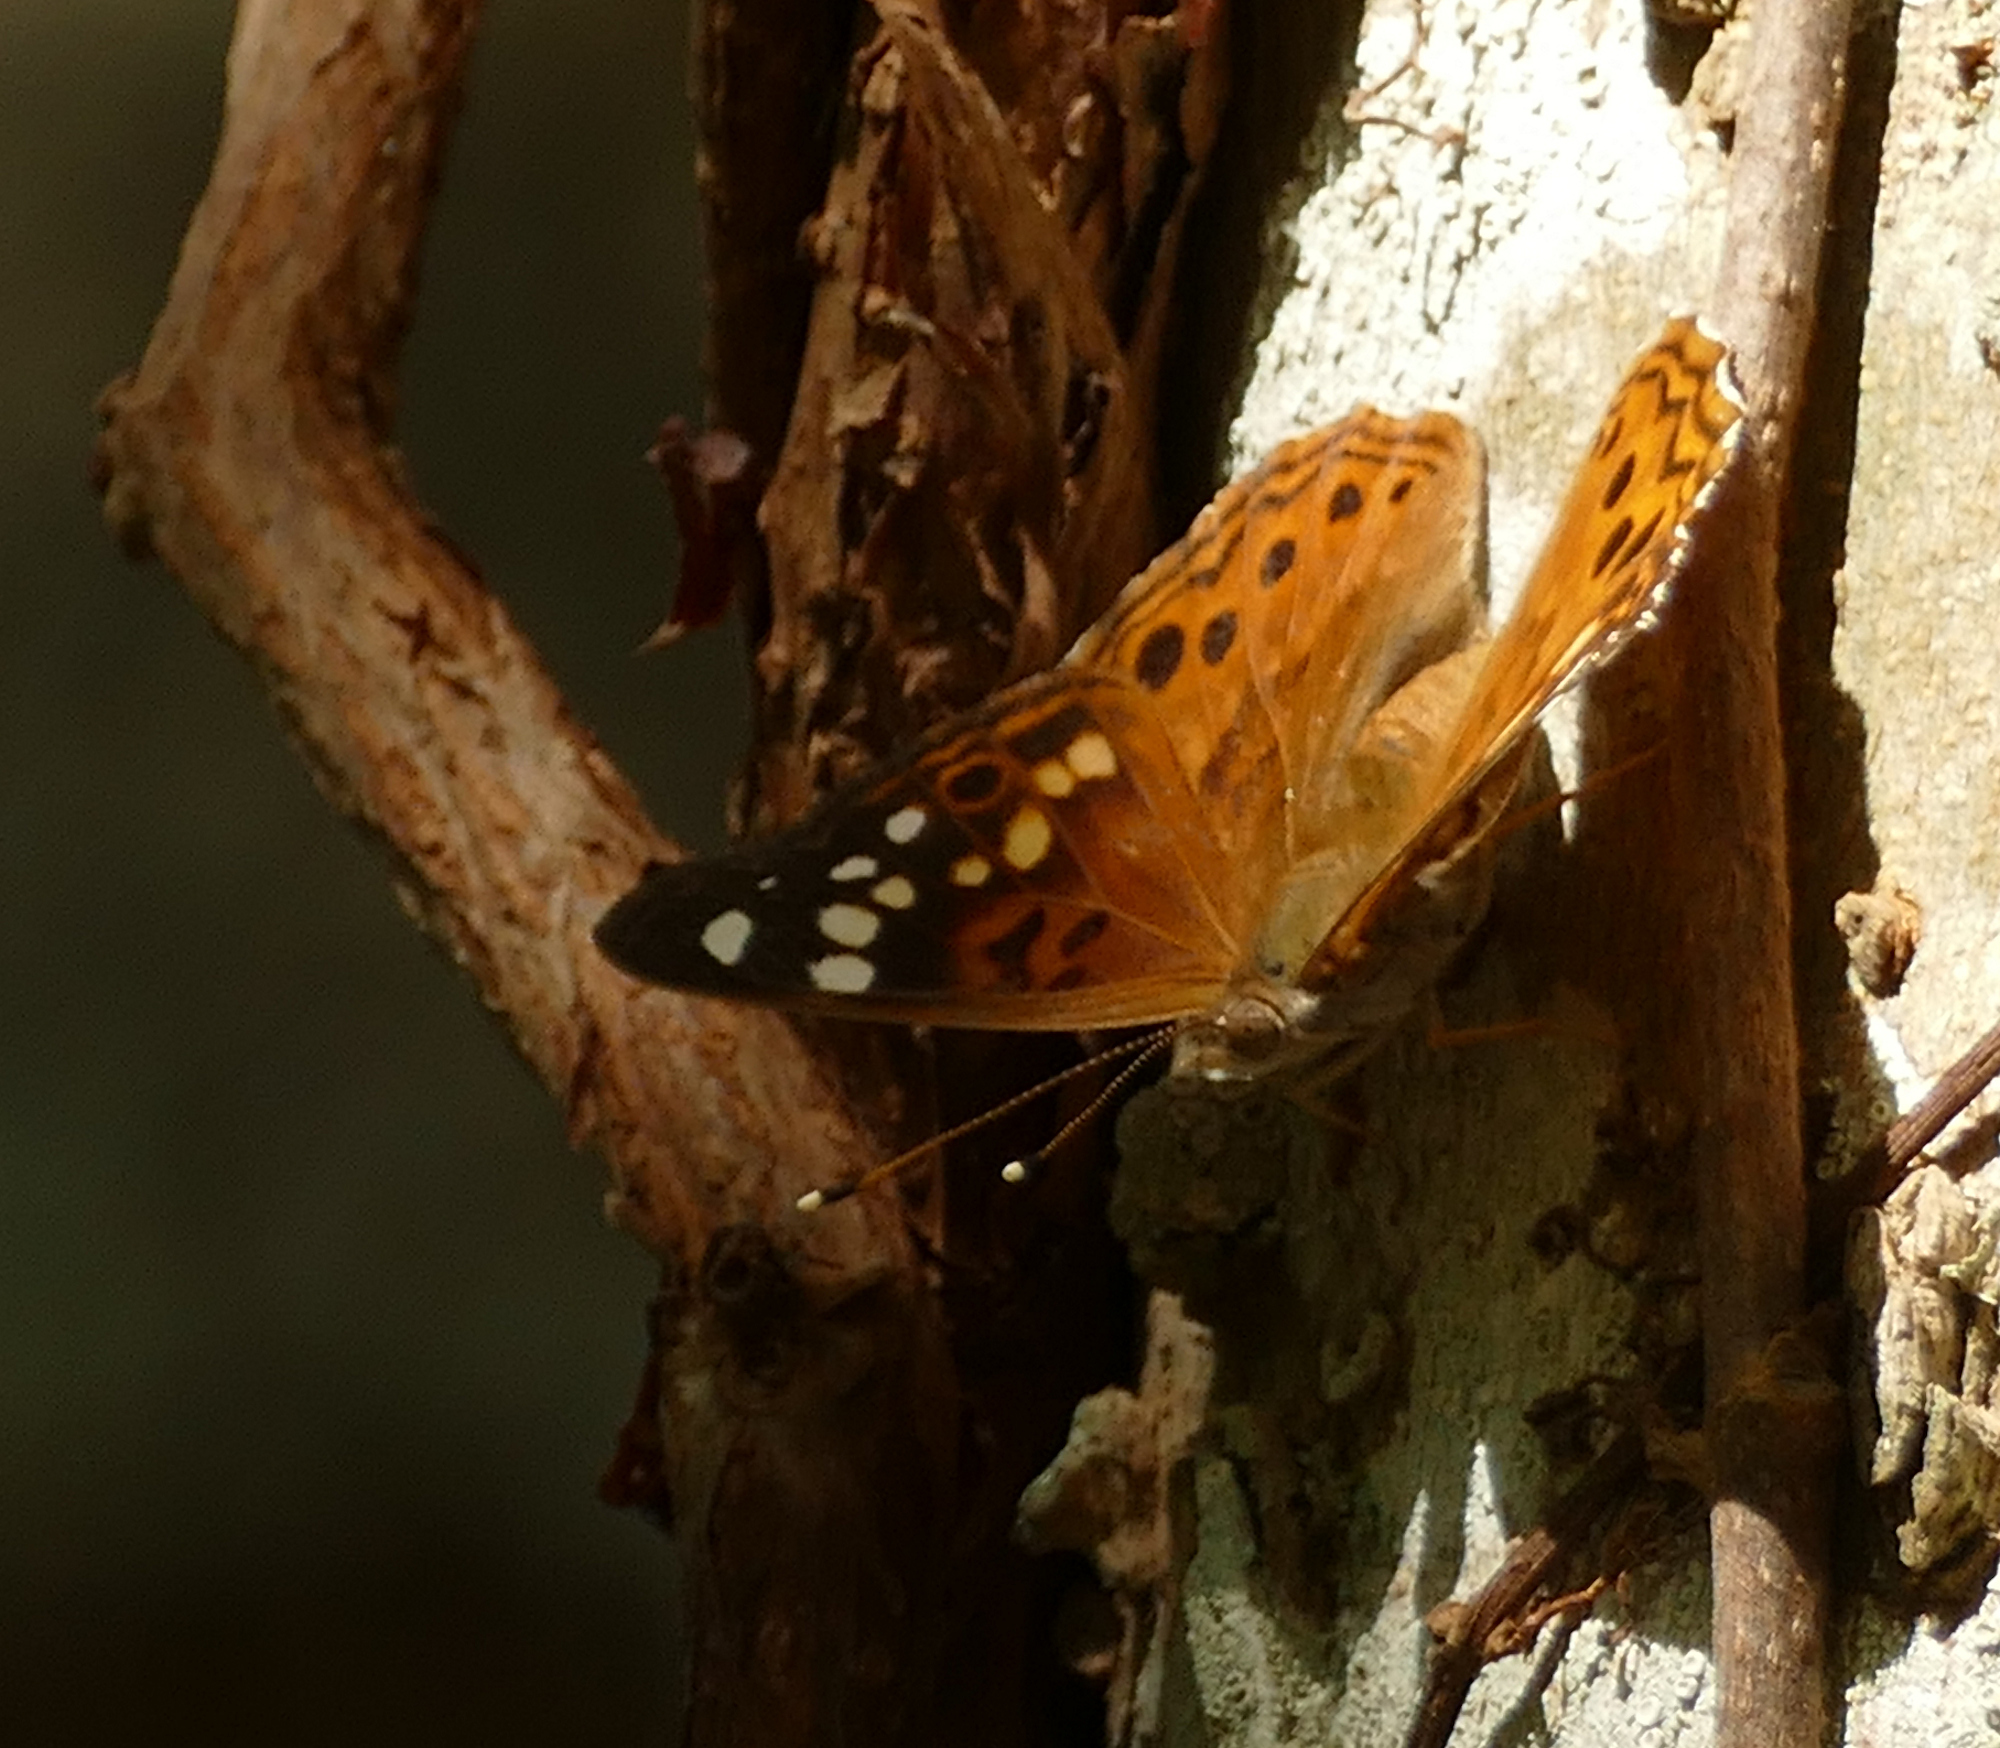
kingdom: Animalia
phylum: Arthropoda
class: Insecta
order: Lepidoptera
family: Nymphalidae
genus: Asterocampa
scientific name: Asterocampa celtis
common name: Hackberry emperor
